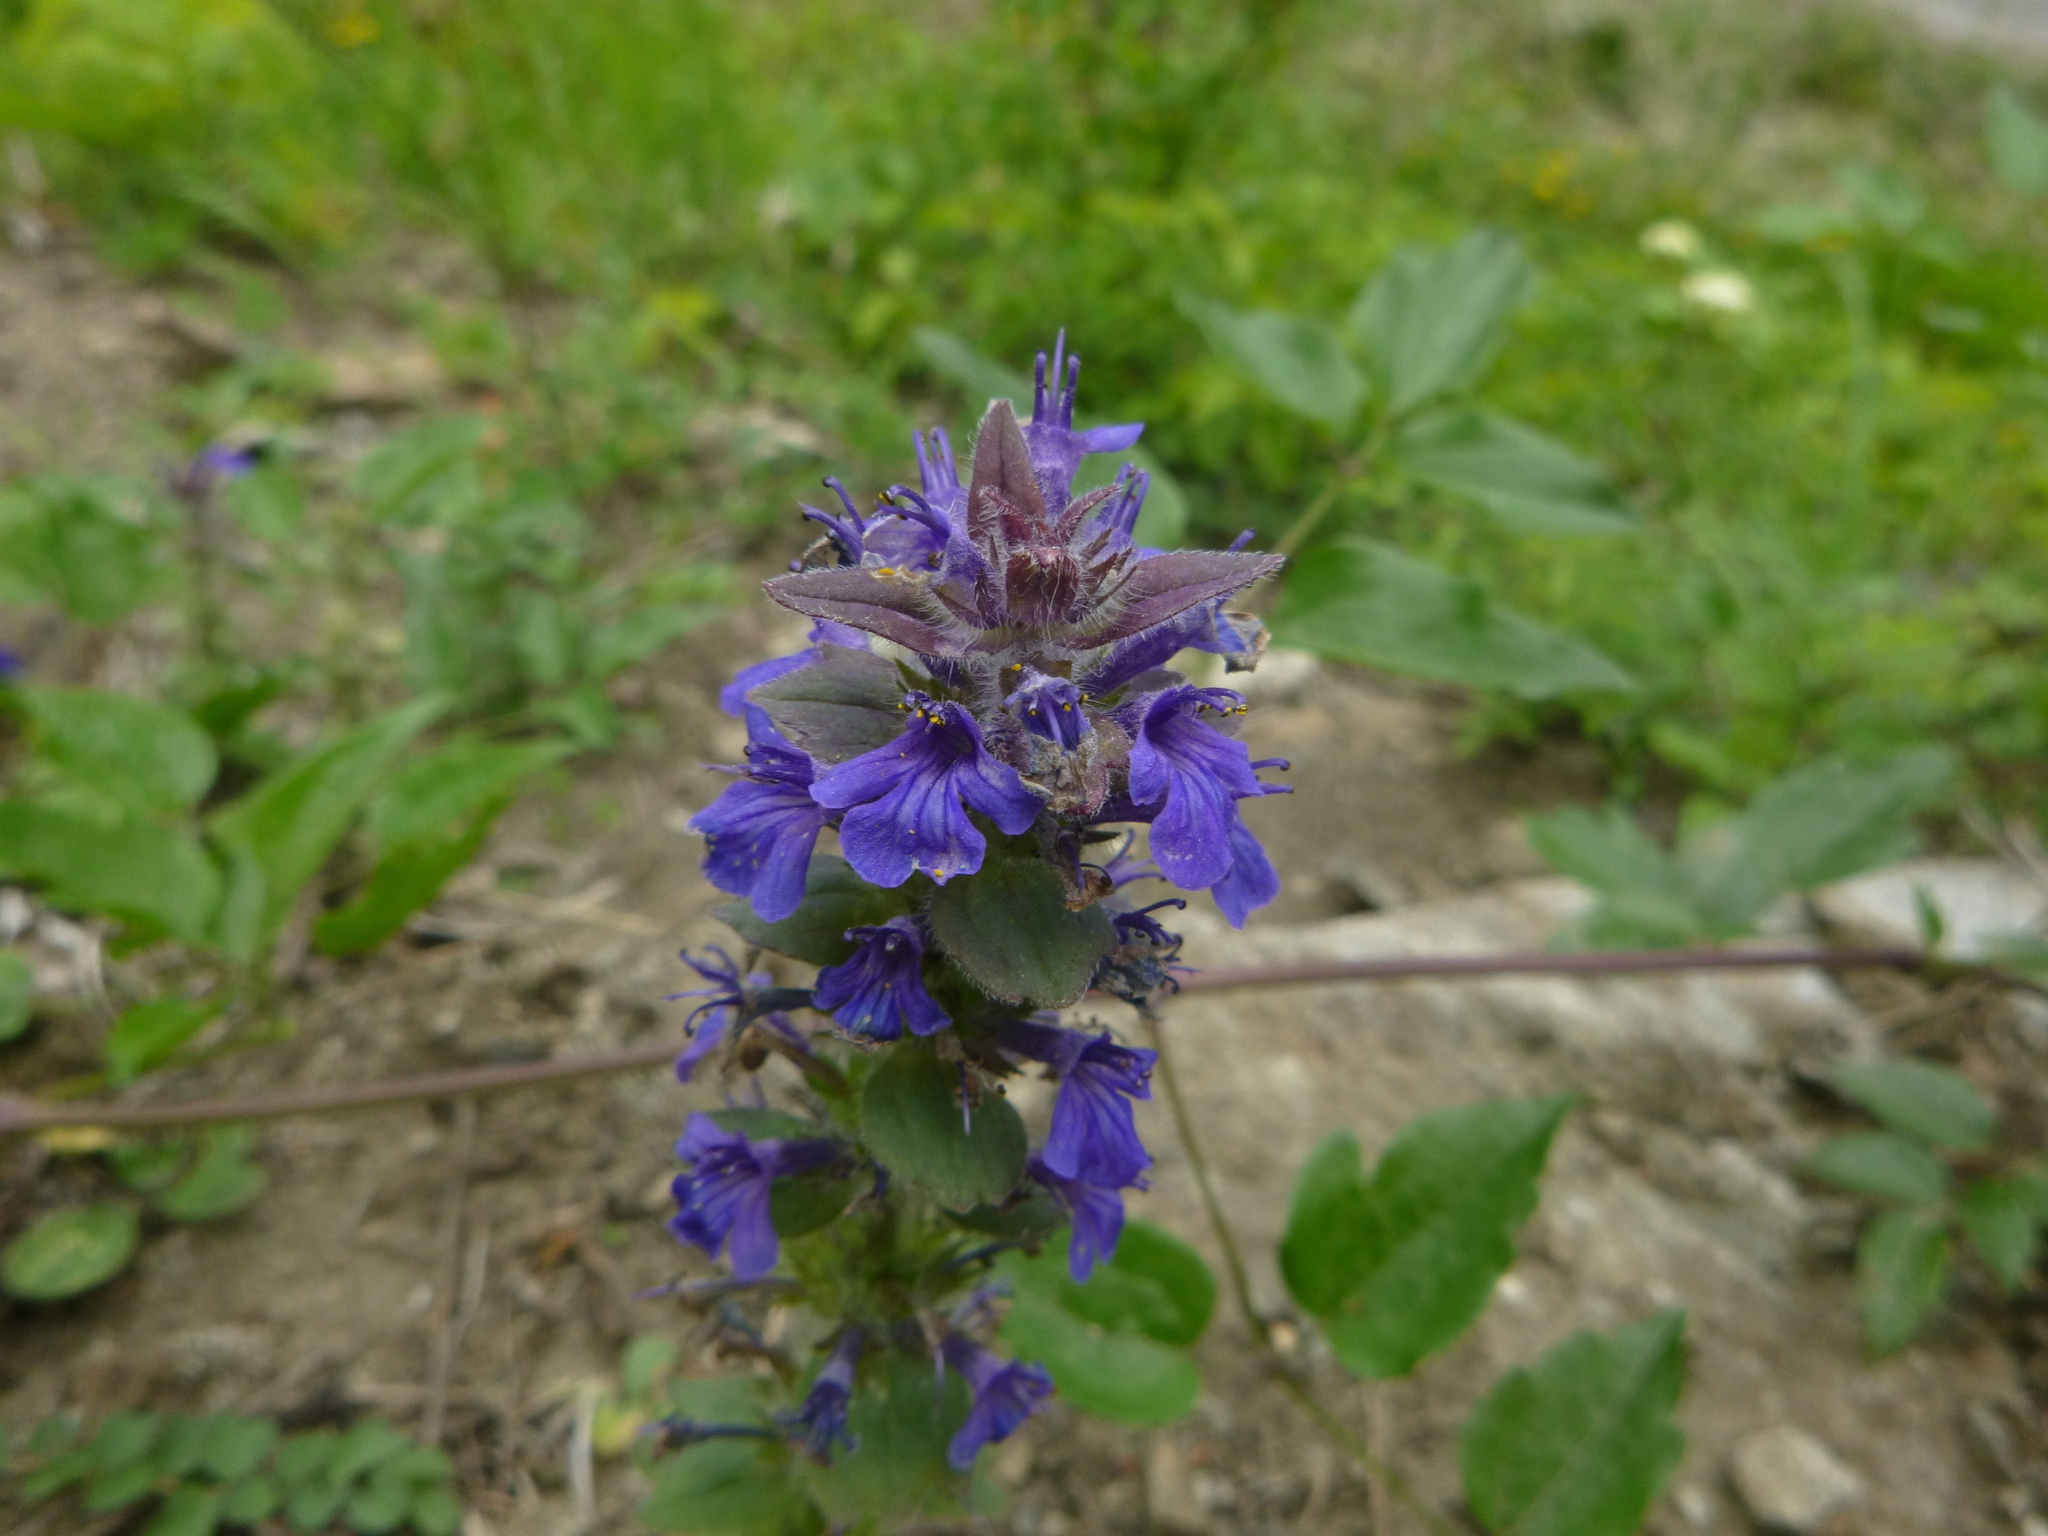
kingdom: Plantae
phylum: Tracheophyta
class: Magnoliopsida
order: Lamiales
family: Lamiaceae
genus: Ajuga
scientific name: Ajuga genevensis
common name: Blue bugle
